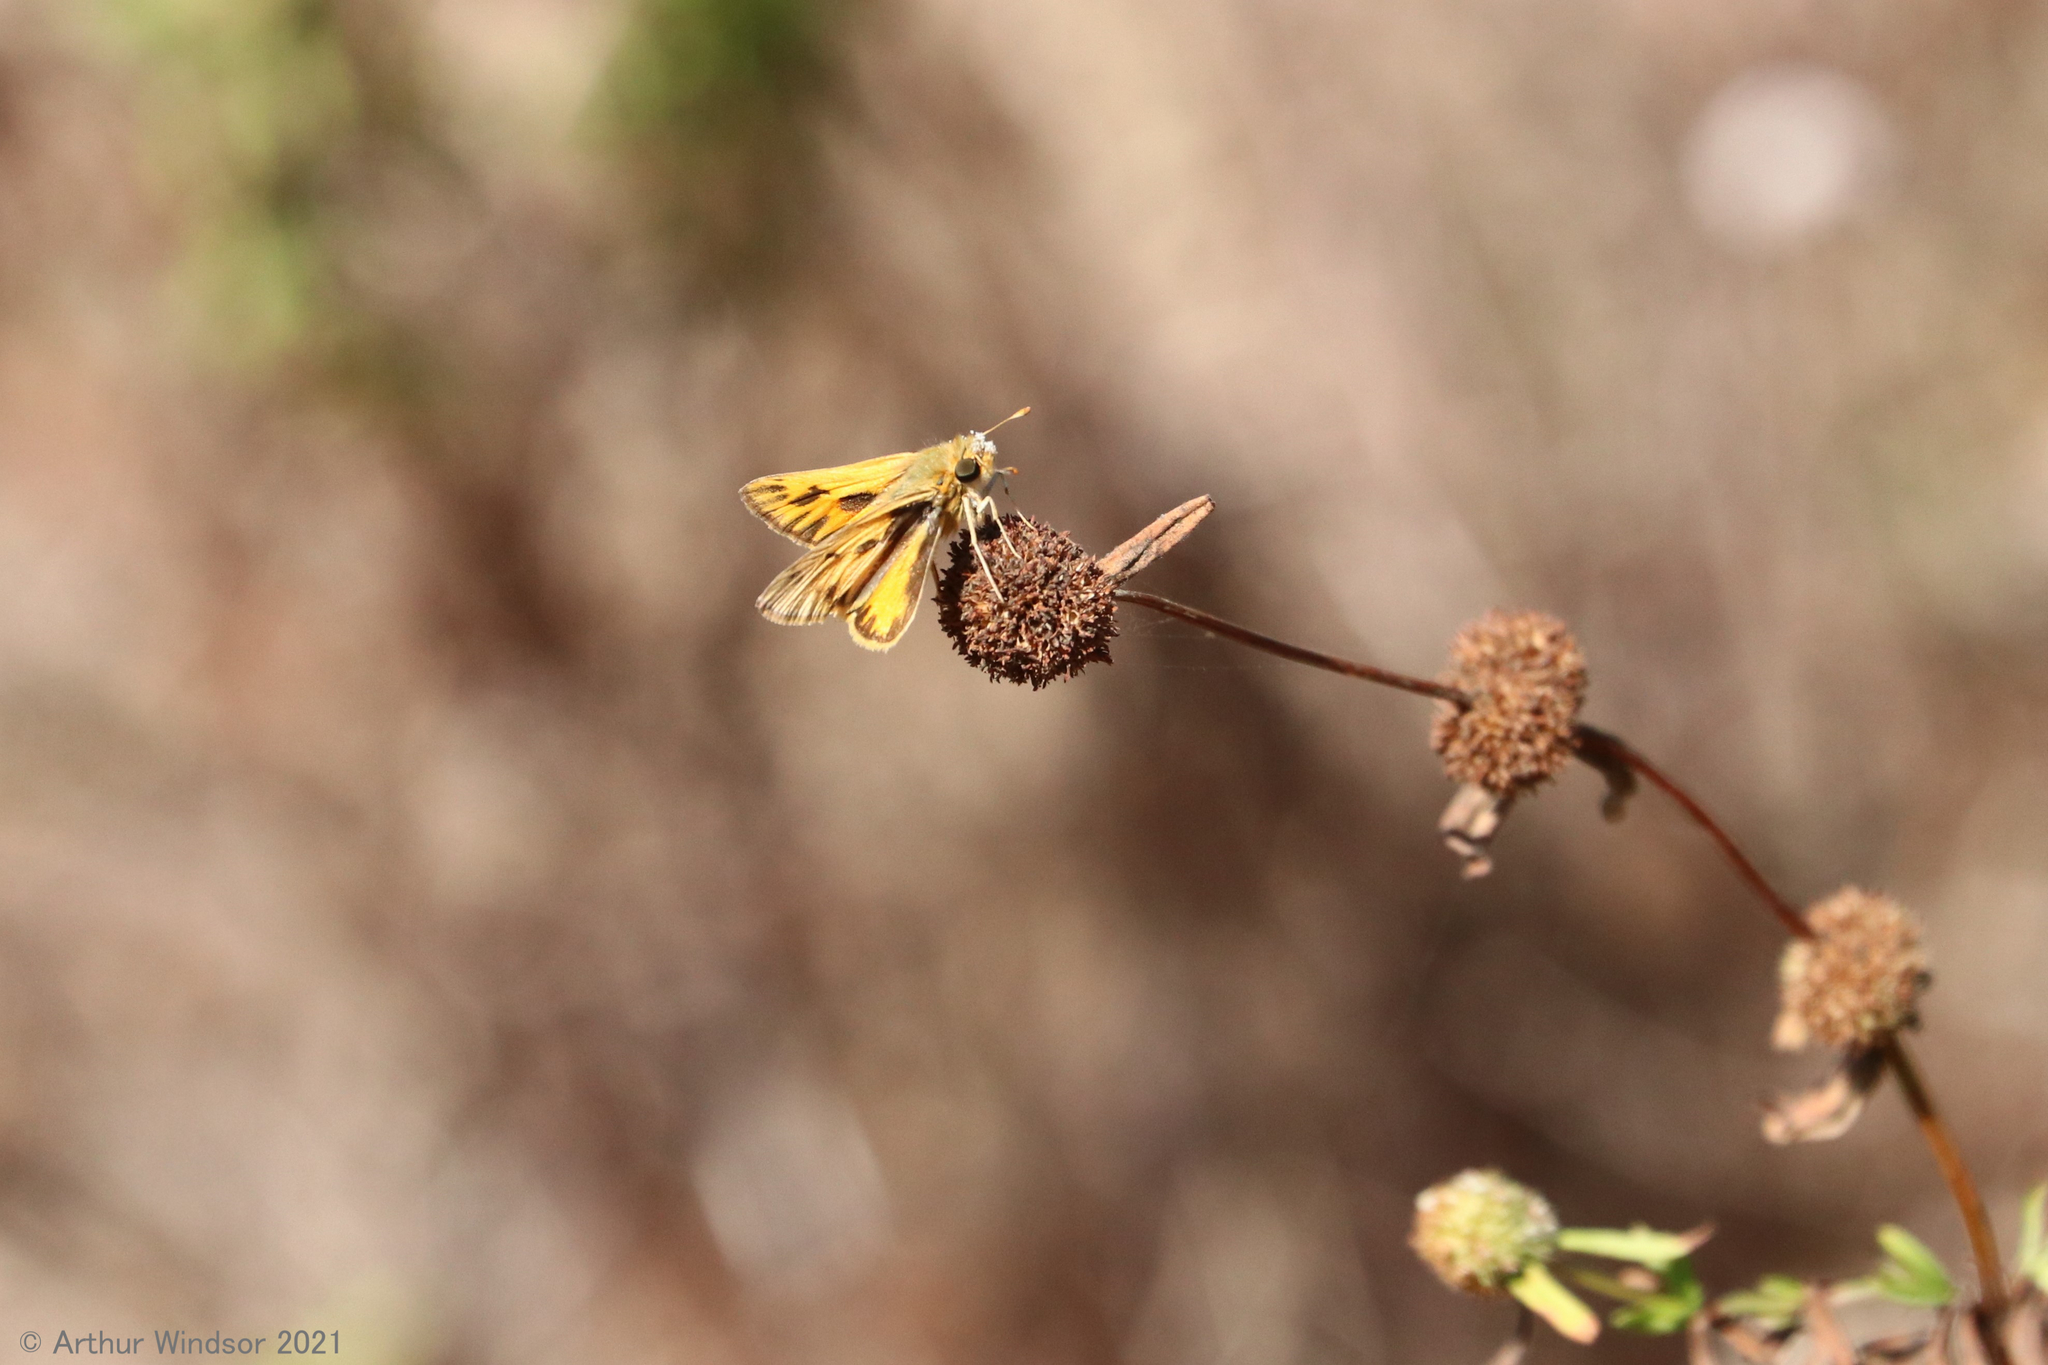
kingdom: Animalia
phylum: Arthropoda
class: Insecta
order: Lepidoptera
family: Hesperiidae
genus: Hylephila
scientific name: Hylephila phyleus
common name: Fiery skipper
